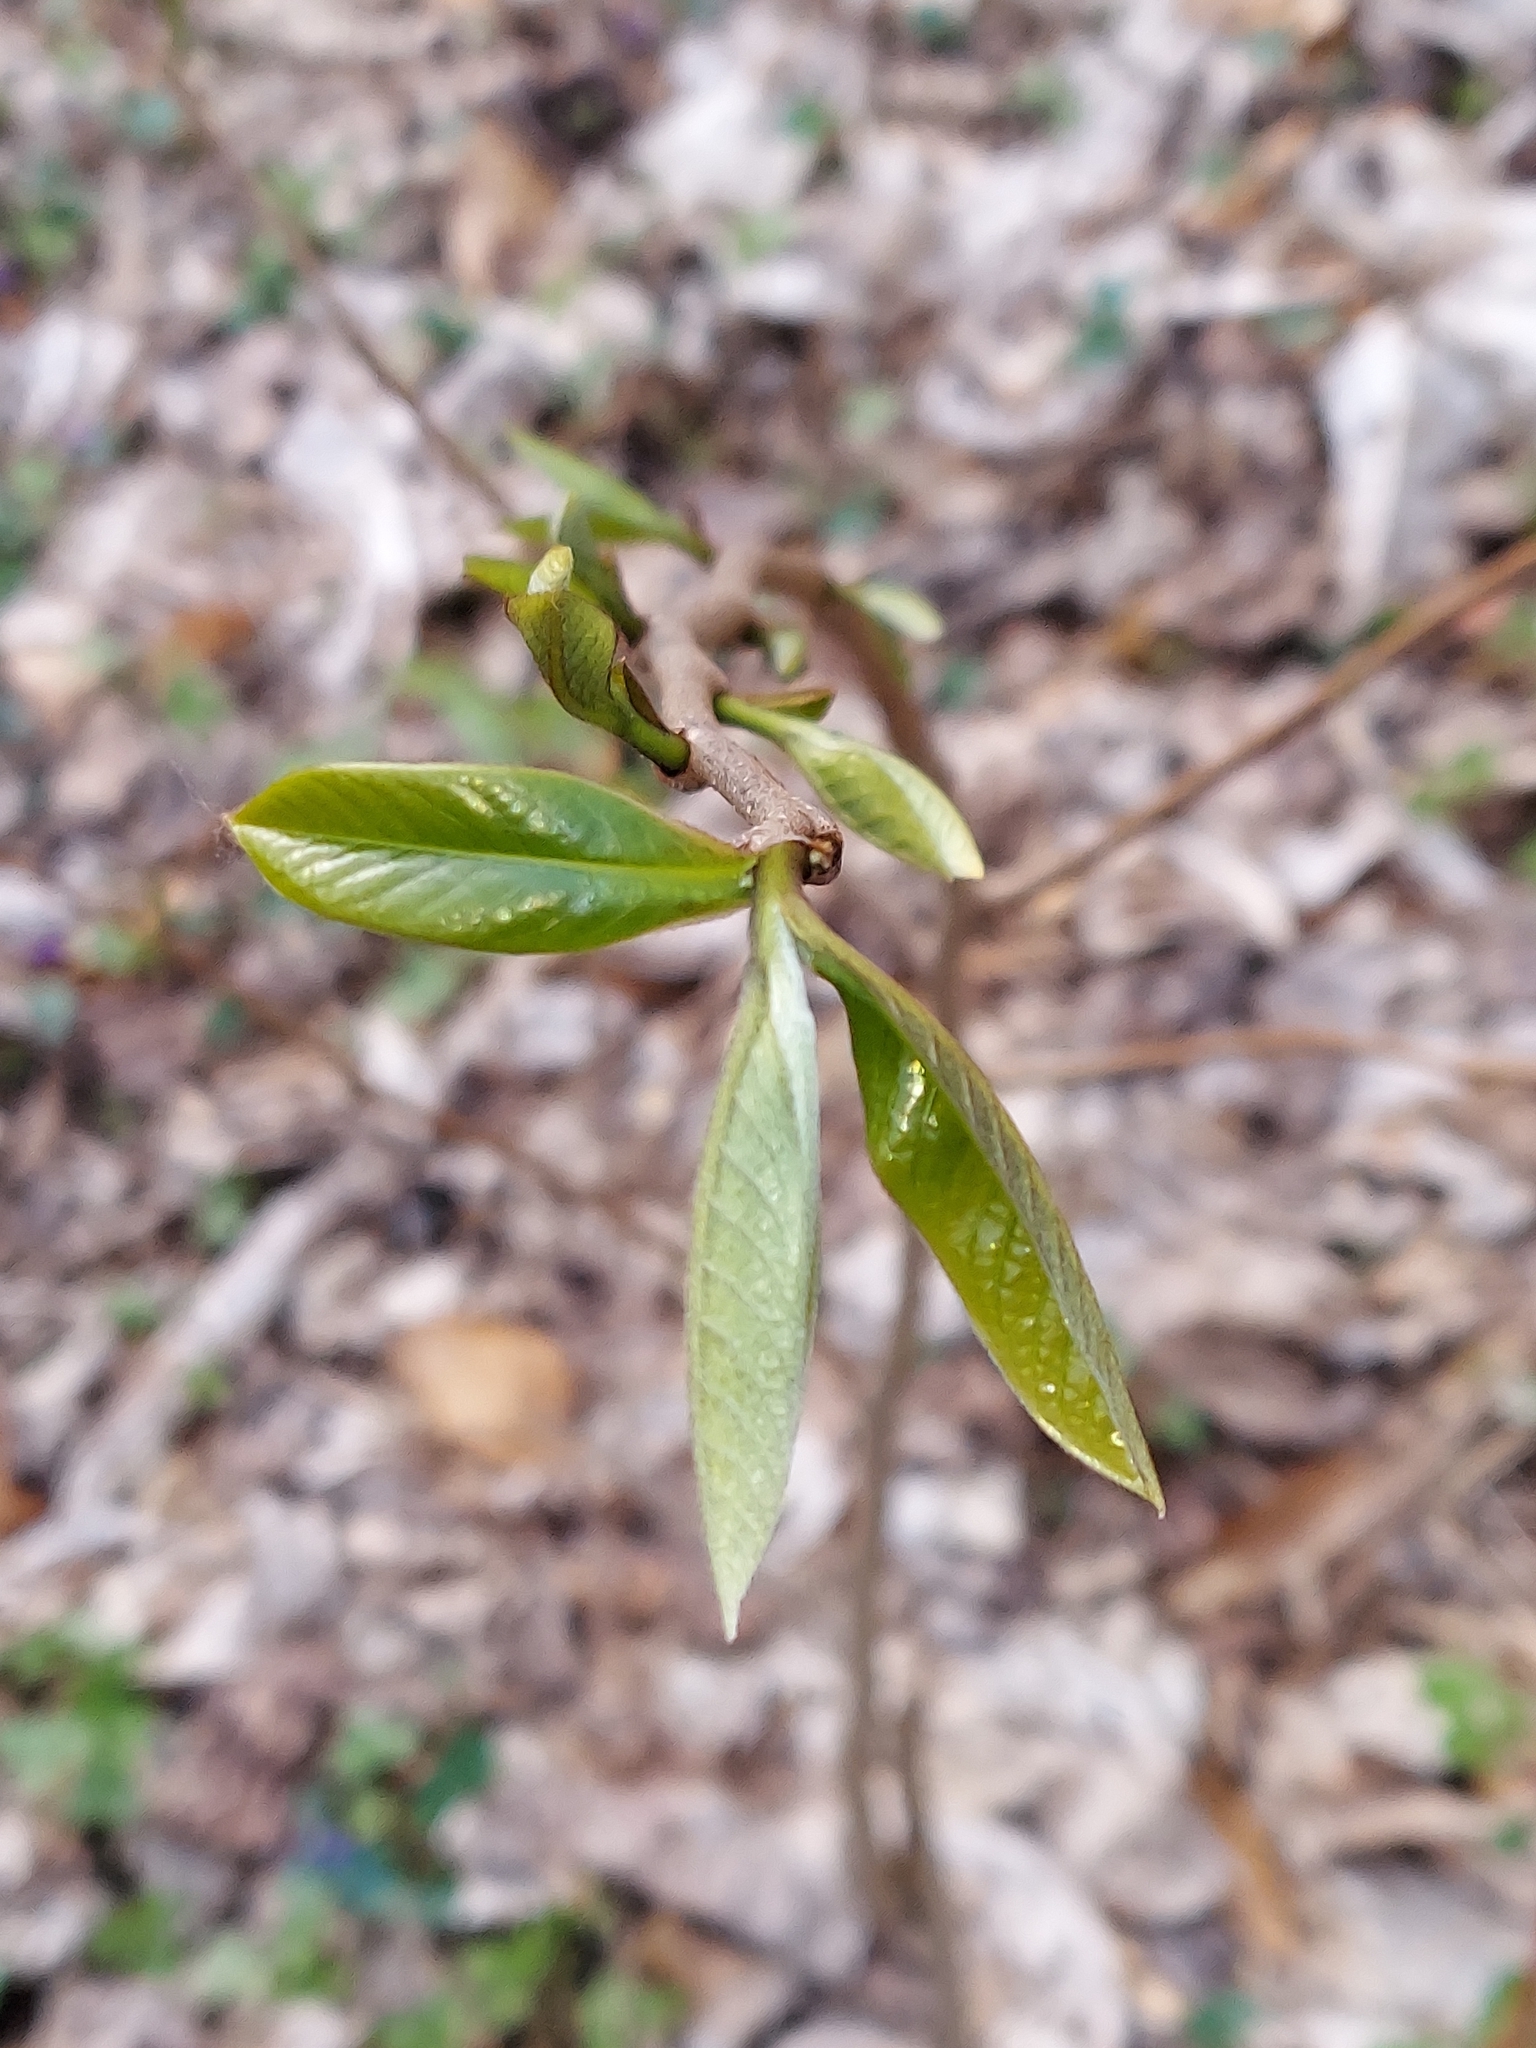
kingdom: Plantae
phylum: Tracheophyta
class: Magnoliopsida
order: Magnoliales
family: Annonaceae
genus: Asimina
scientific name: Asimina triloba
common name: Dog-banana
